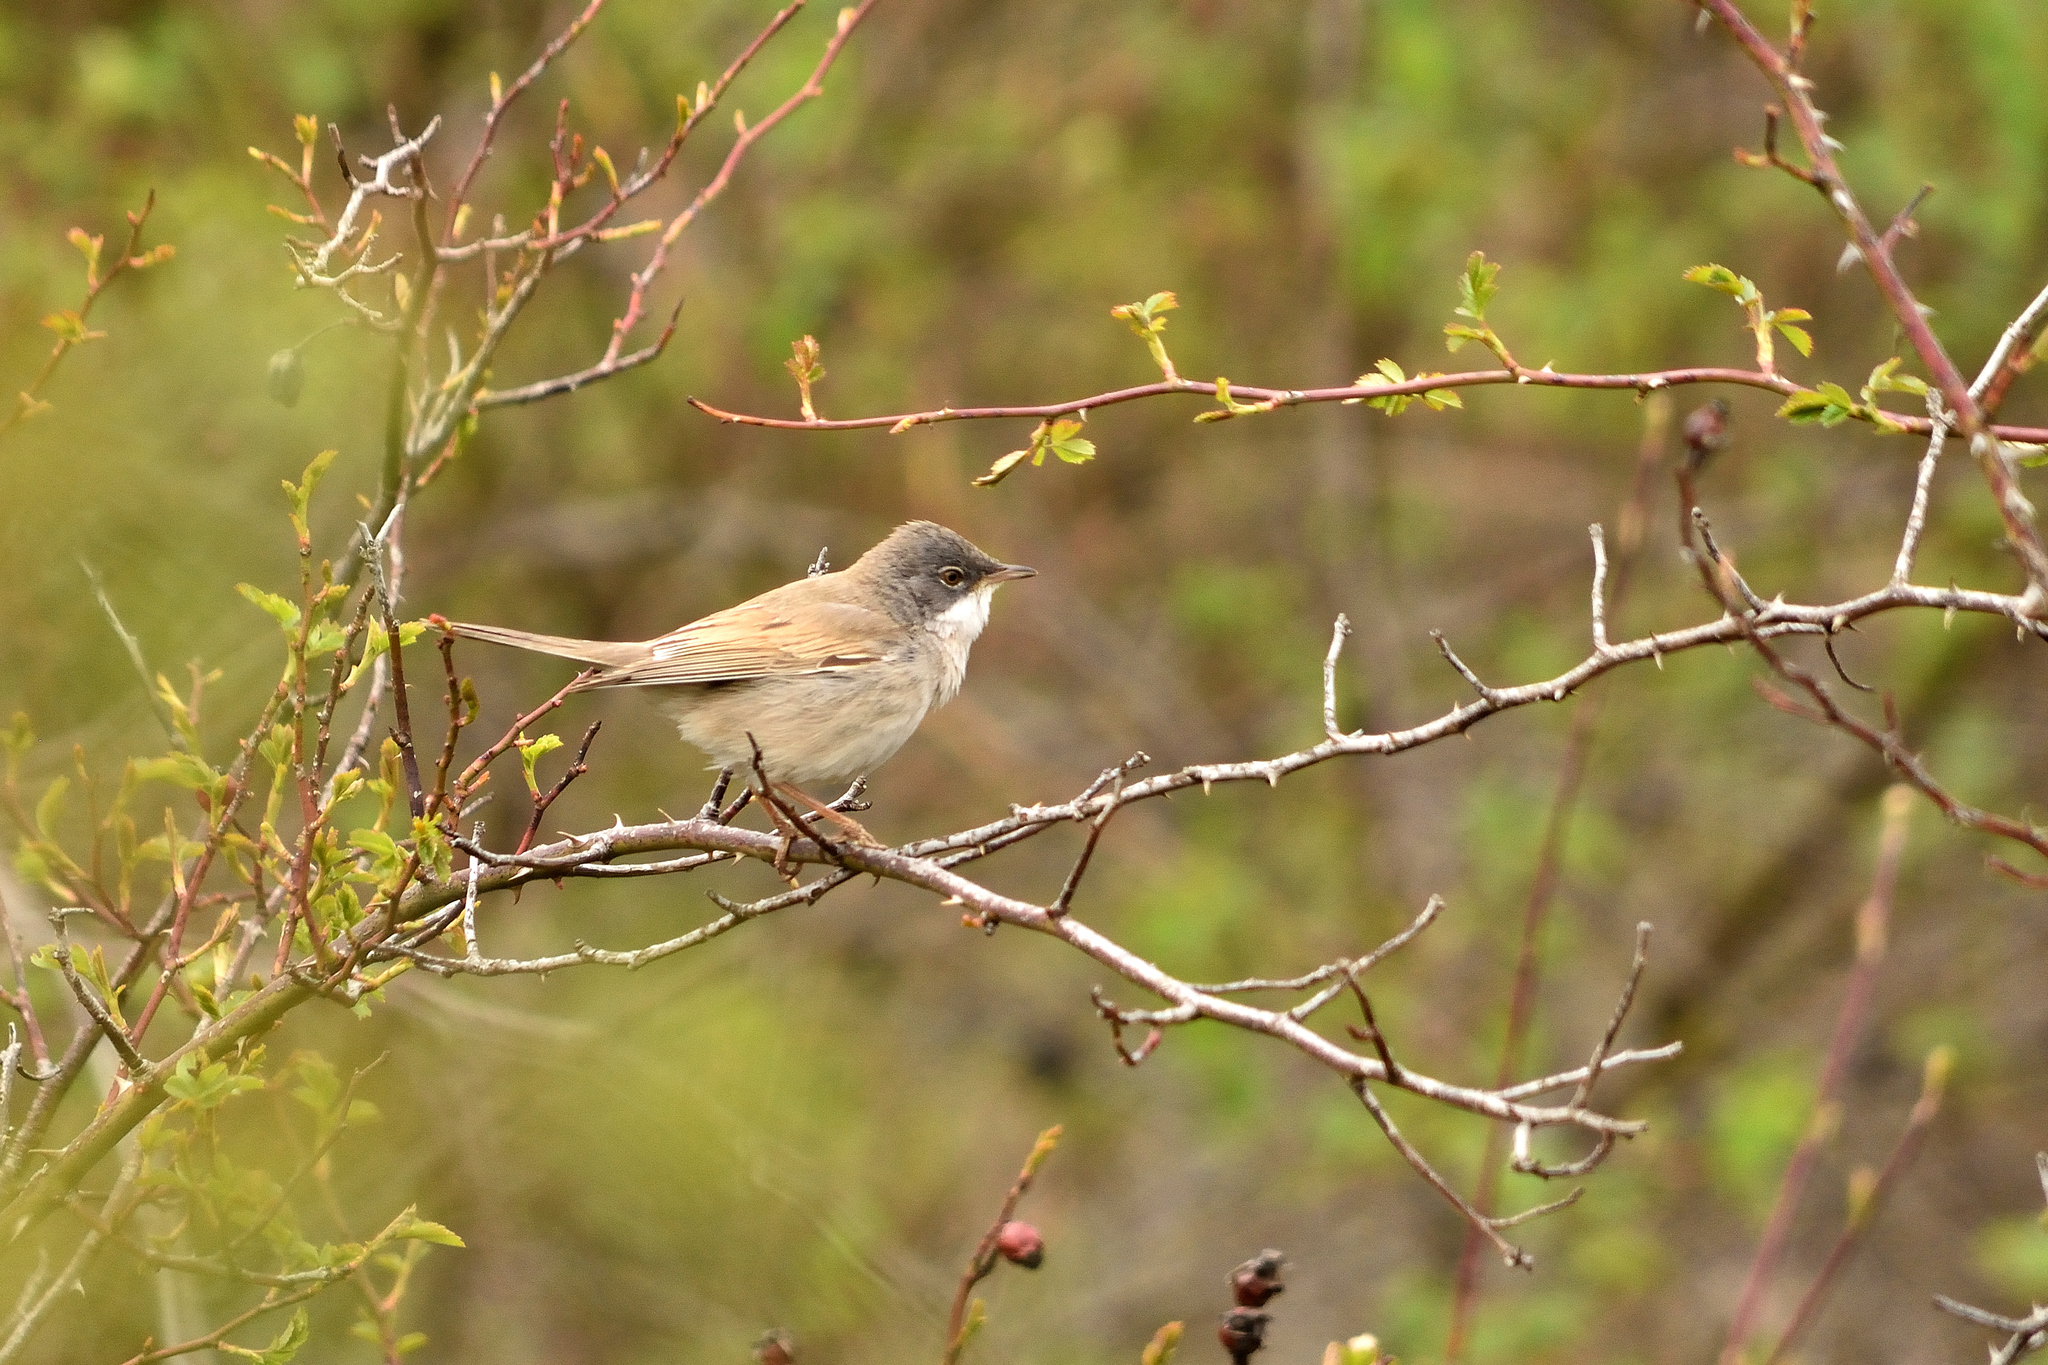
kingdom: Animalia
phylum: Chordata
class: Aves
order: Passeriformes
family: Sylviidae
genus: Sylvia
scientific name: Sylvia communis
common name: Common whitethroat
